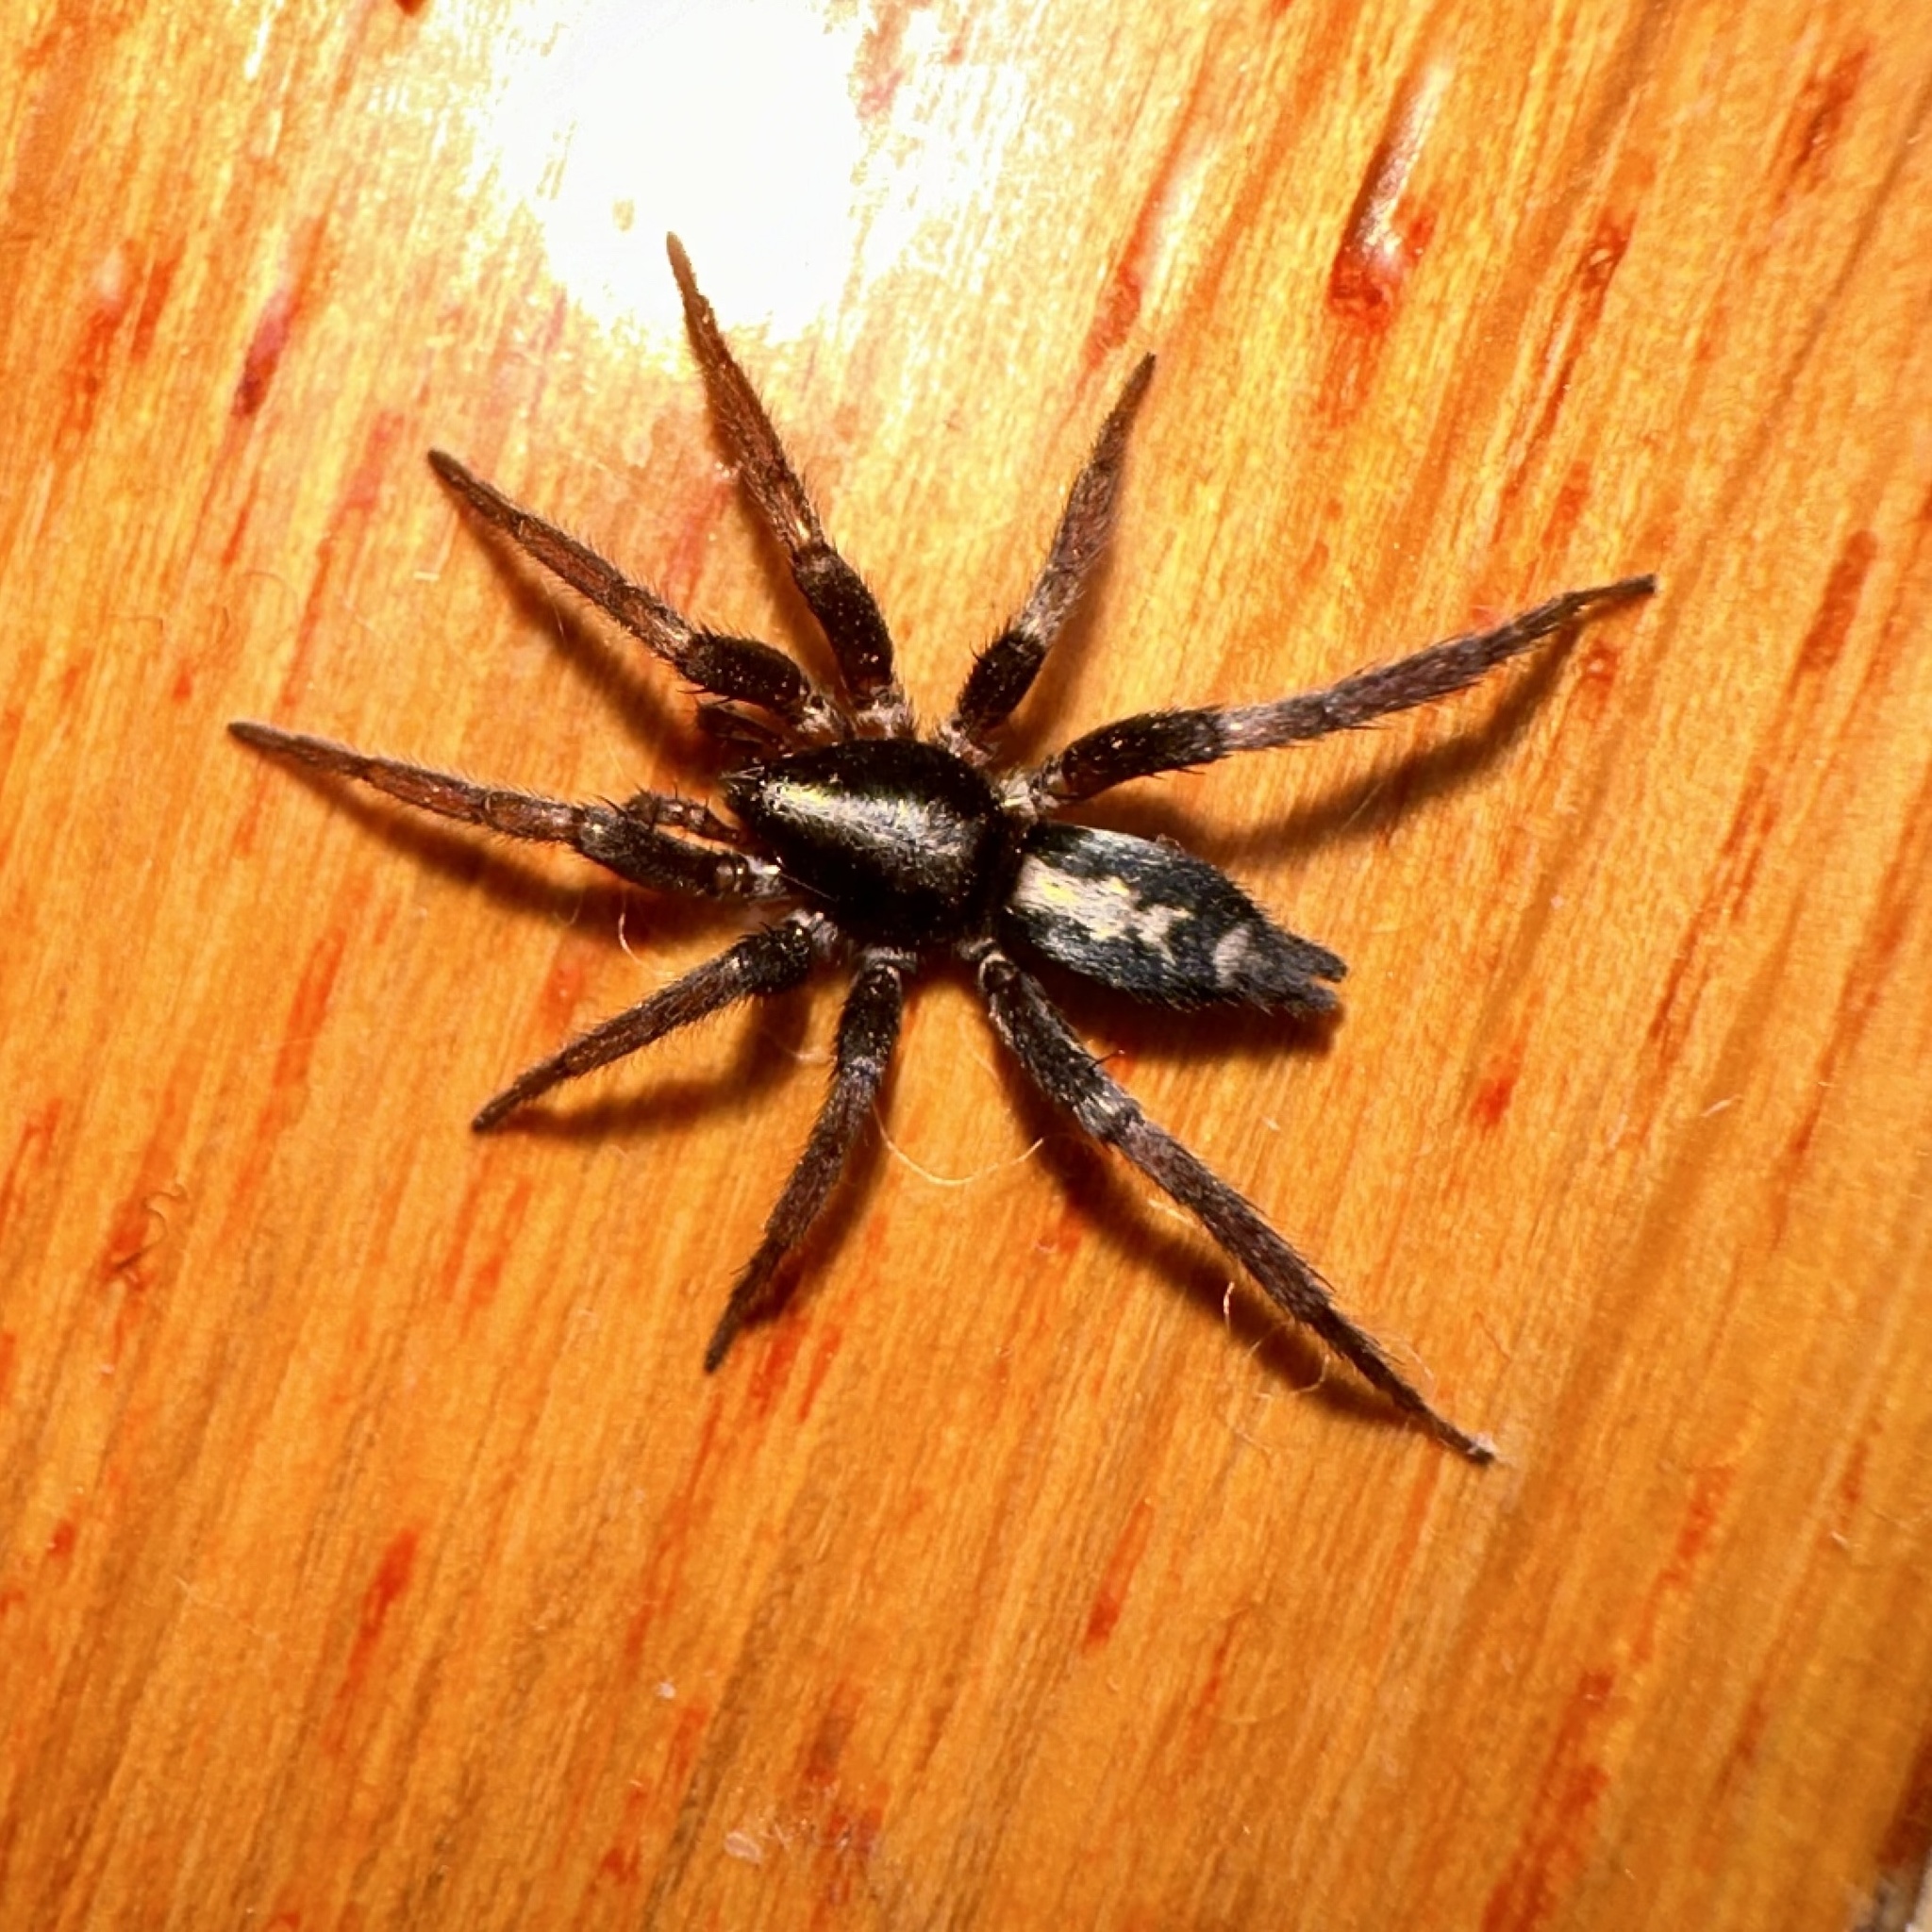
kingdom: Animalia
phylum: Arthropoda
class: Arachnida
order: Araneae
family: Gnaphosidae
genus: Herpyllus
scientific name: Herpyllus ecclesiasticus
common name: Eastern parson spider
